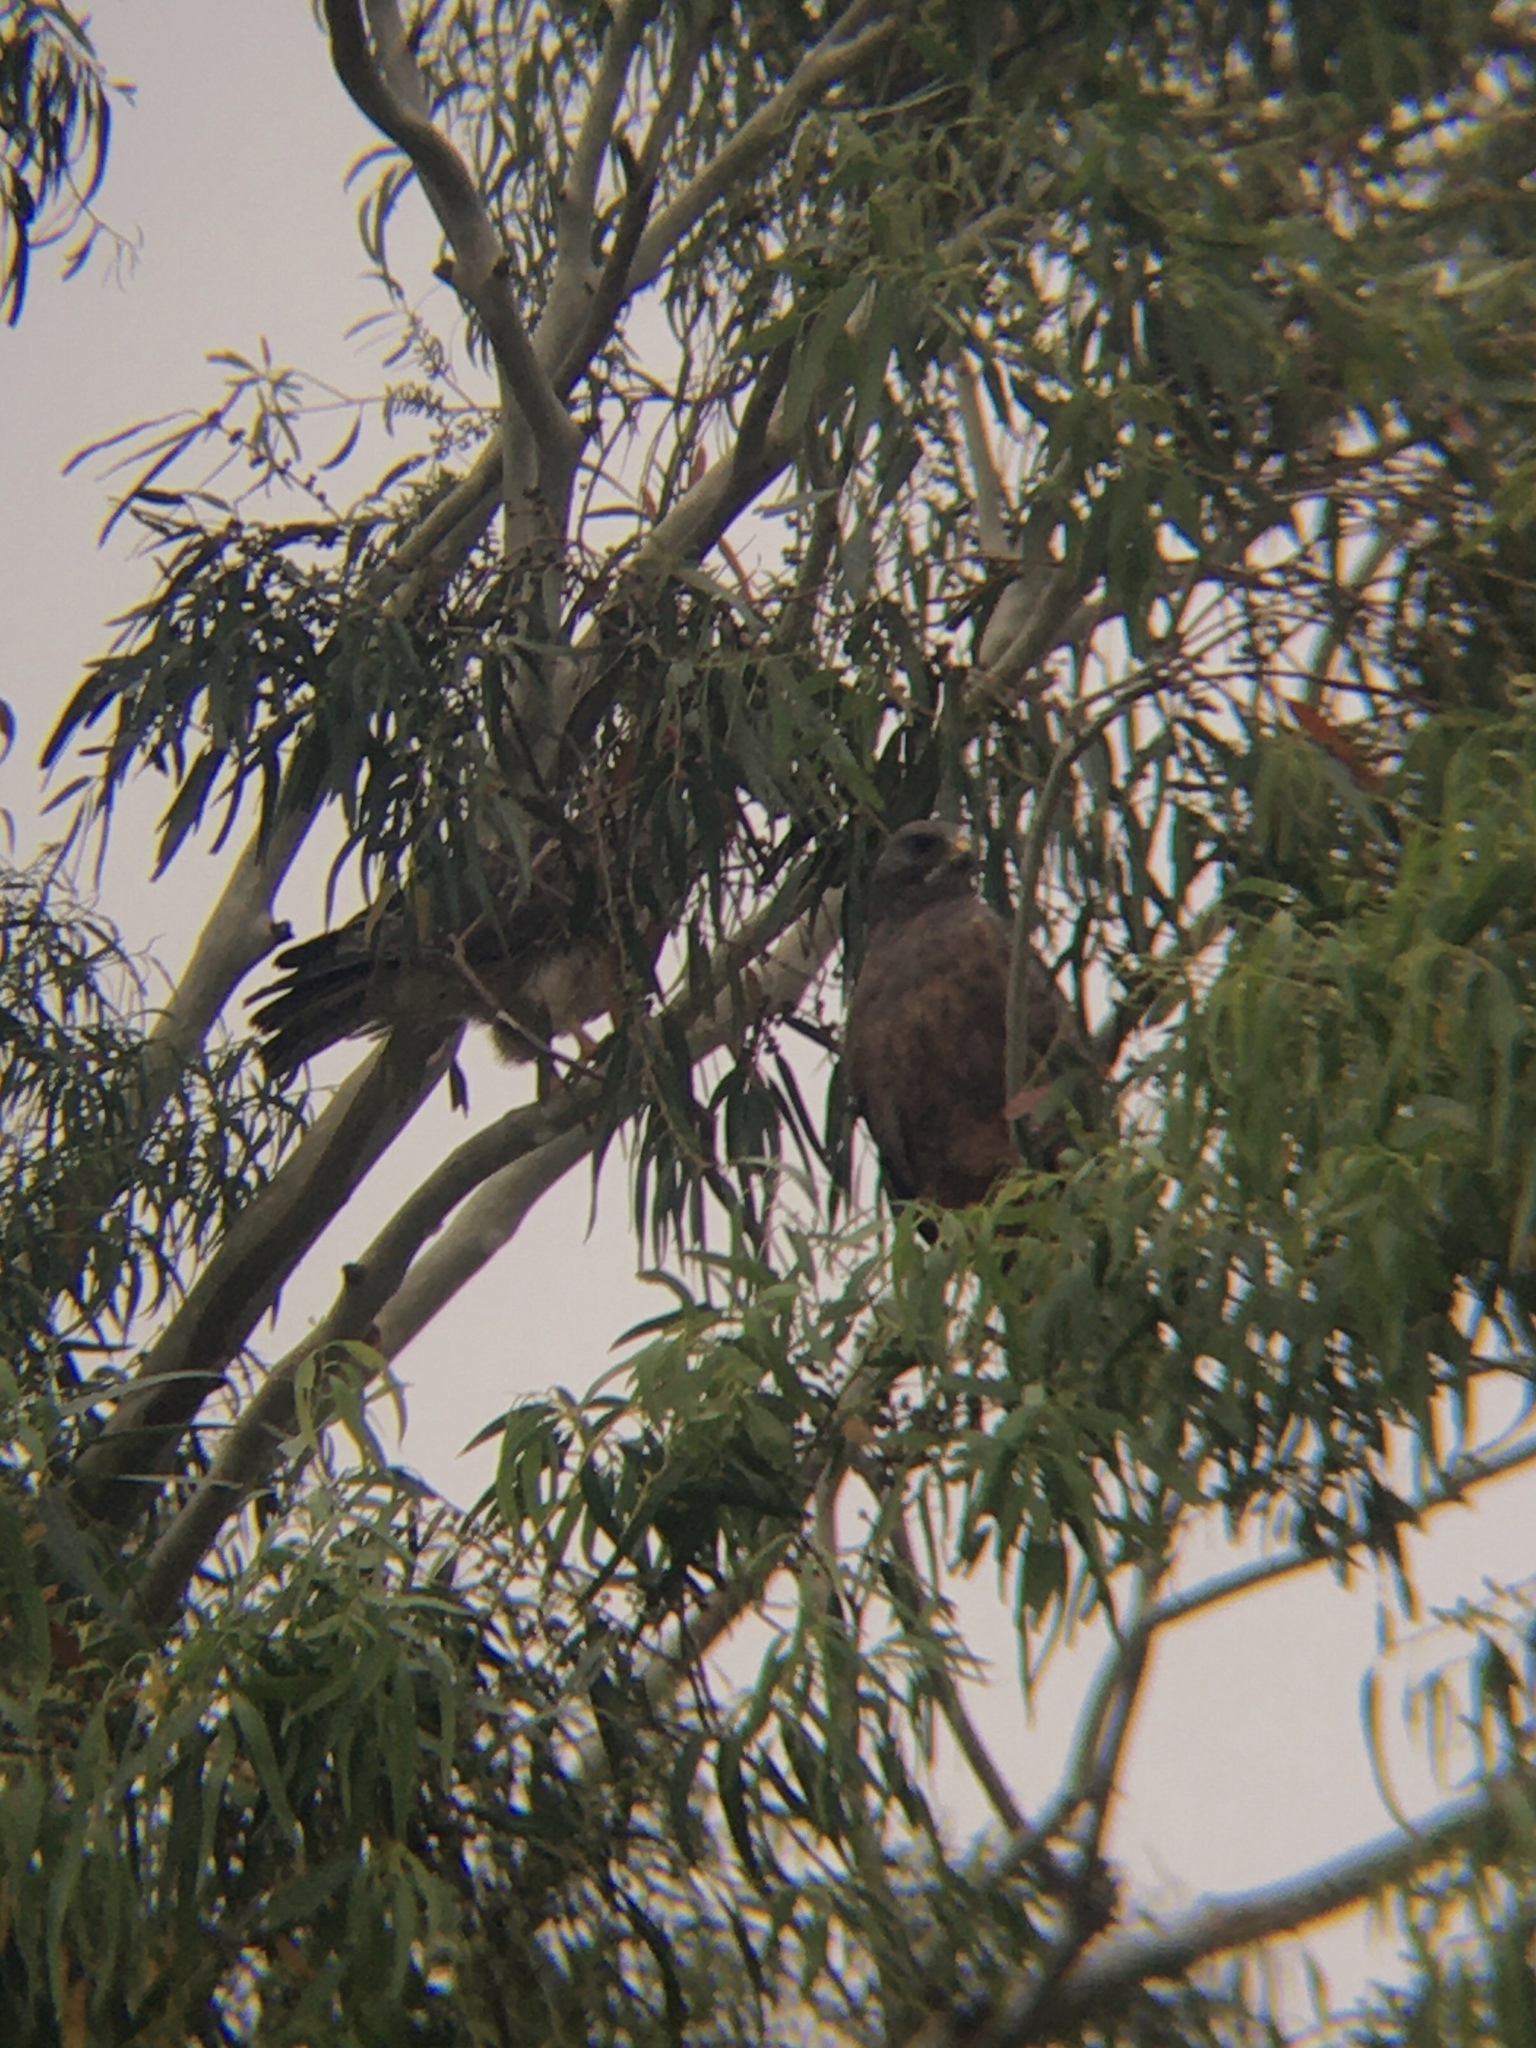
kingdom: Animalia
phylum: Chordata
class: Aves
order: Accipitriformes
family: Accipitridae
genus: Buteo
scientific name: Buteo swainsoni
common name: Swainson's hawk
